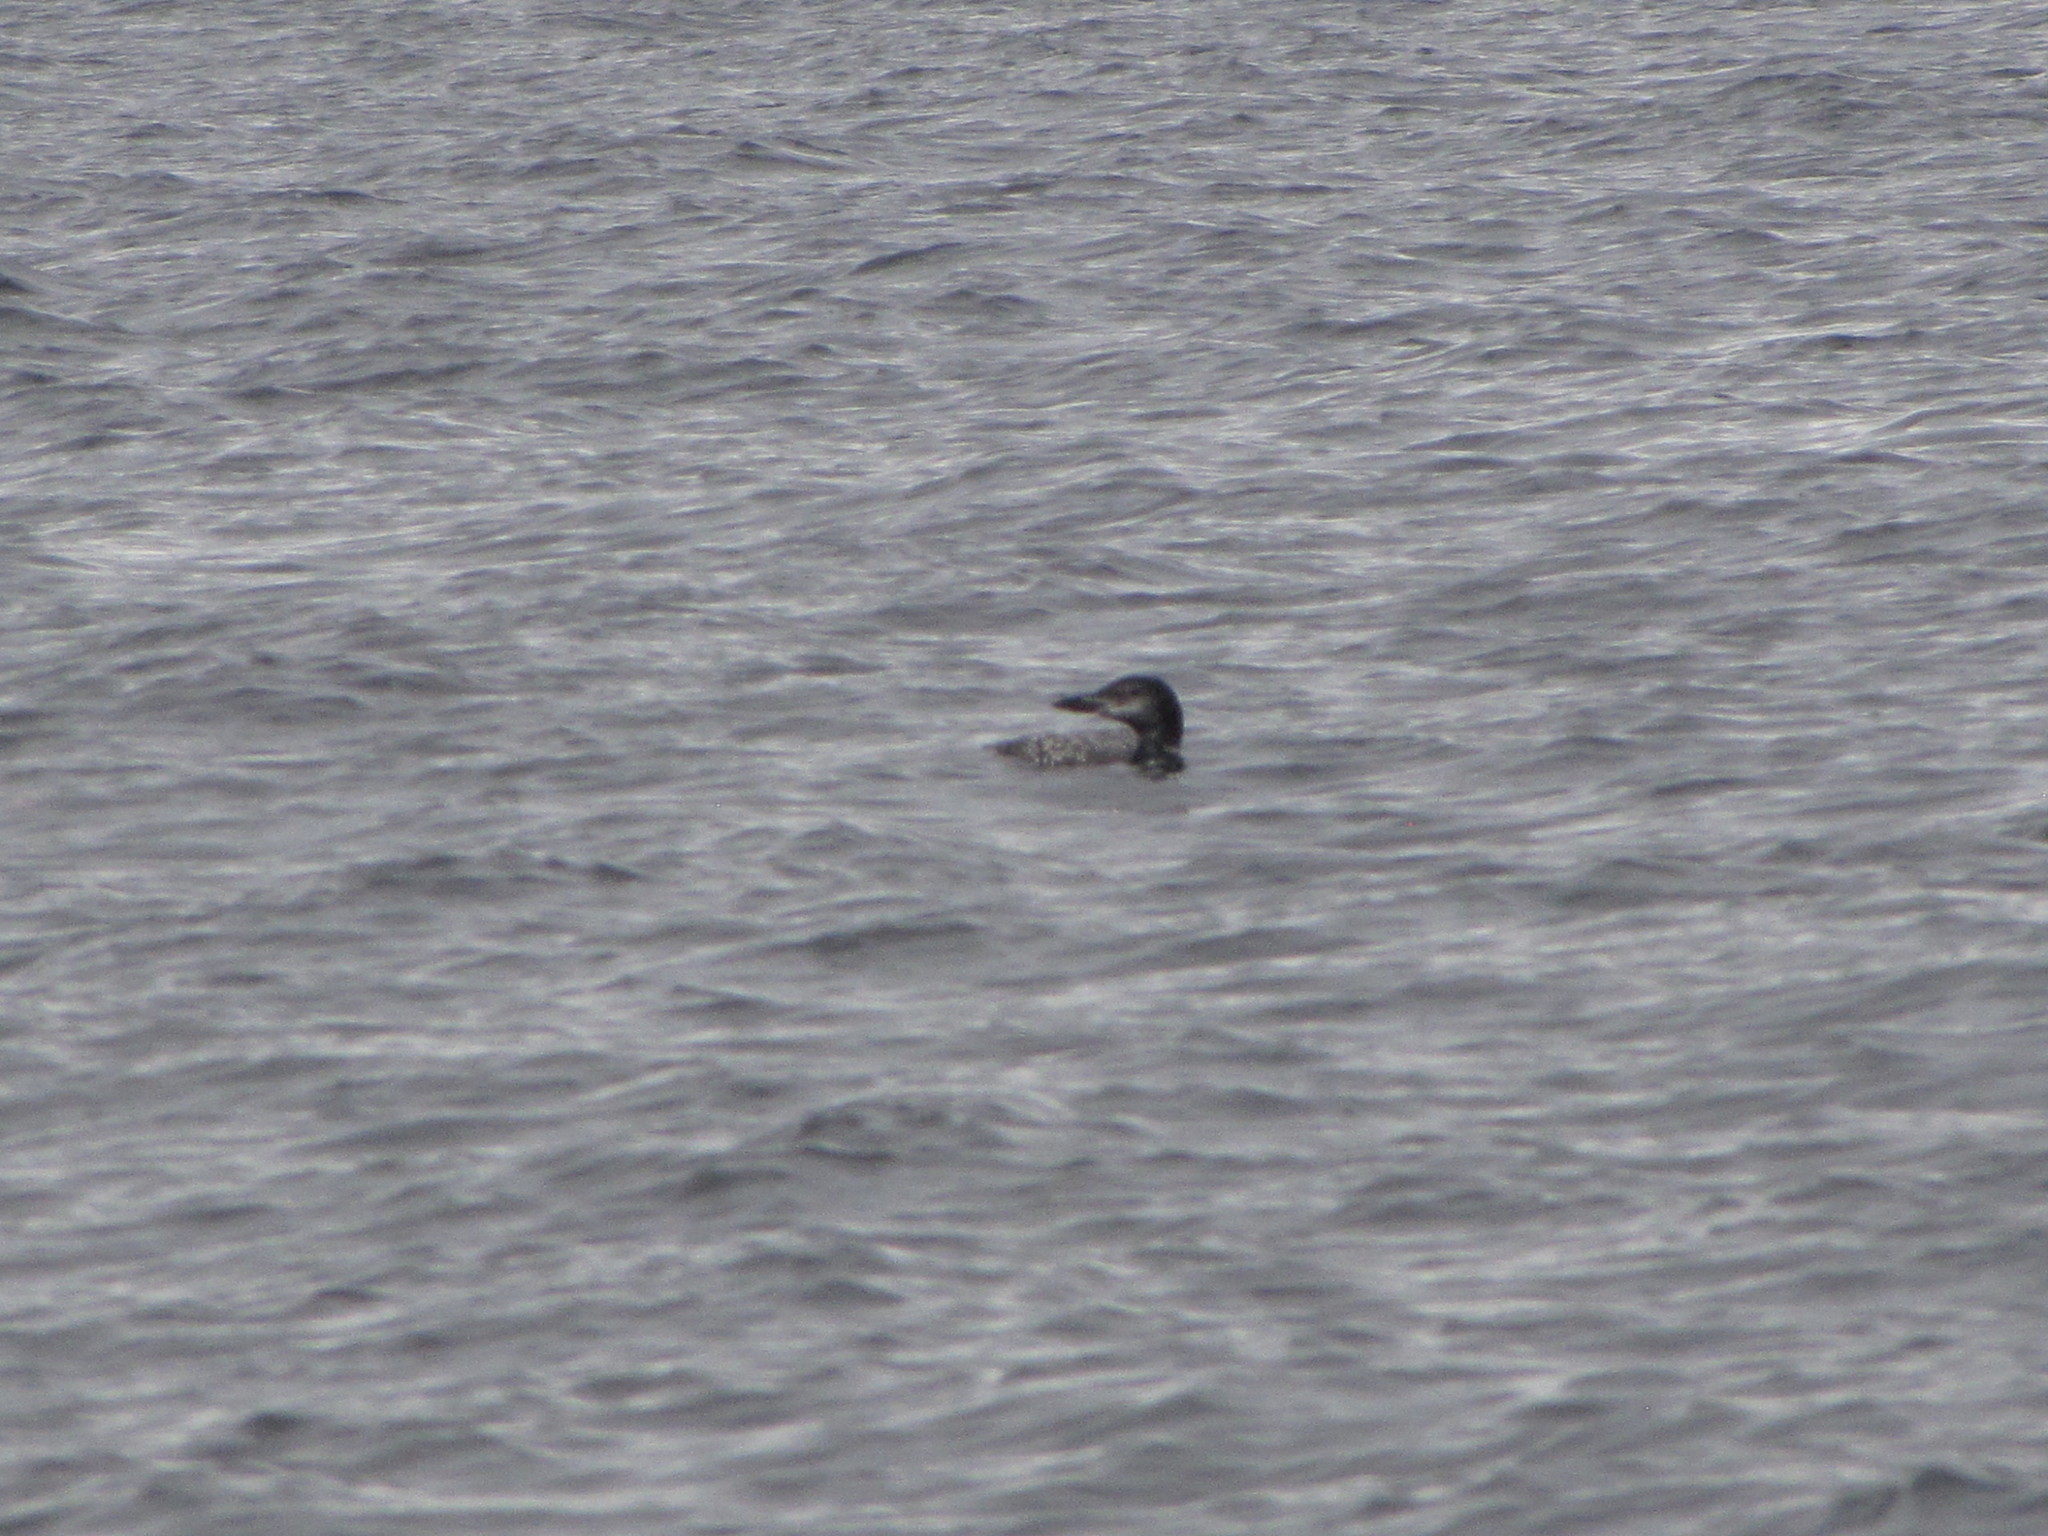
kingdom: Animalia
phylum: Chordata
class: Aves
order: Gaviiformes
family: Gaviidae
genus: Gavia
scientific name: Gavia immer
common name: Common loon
